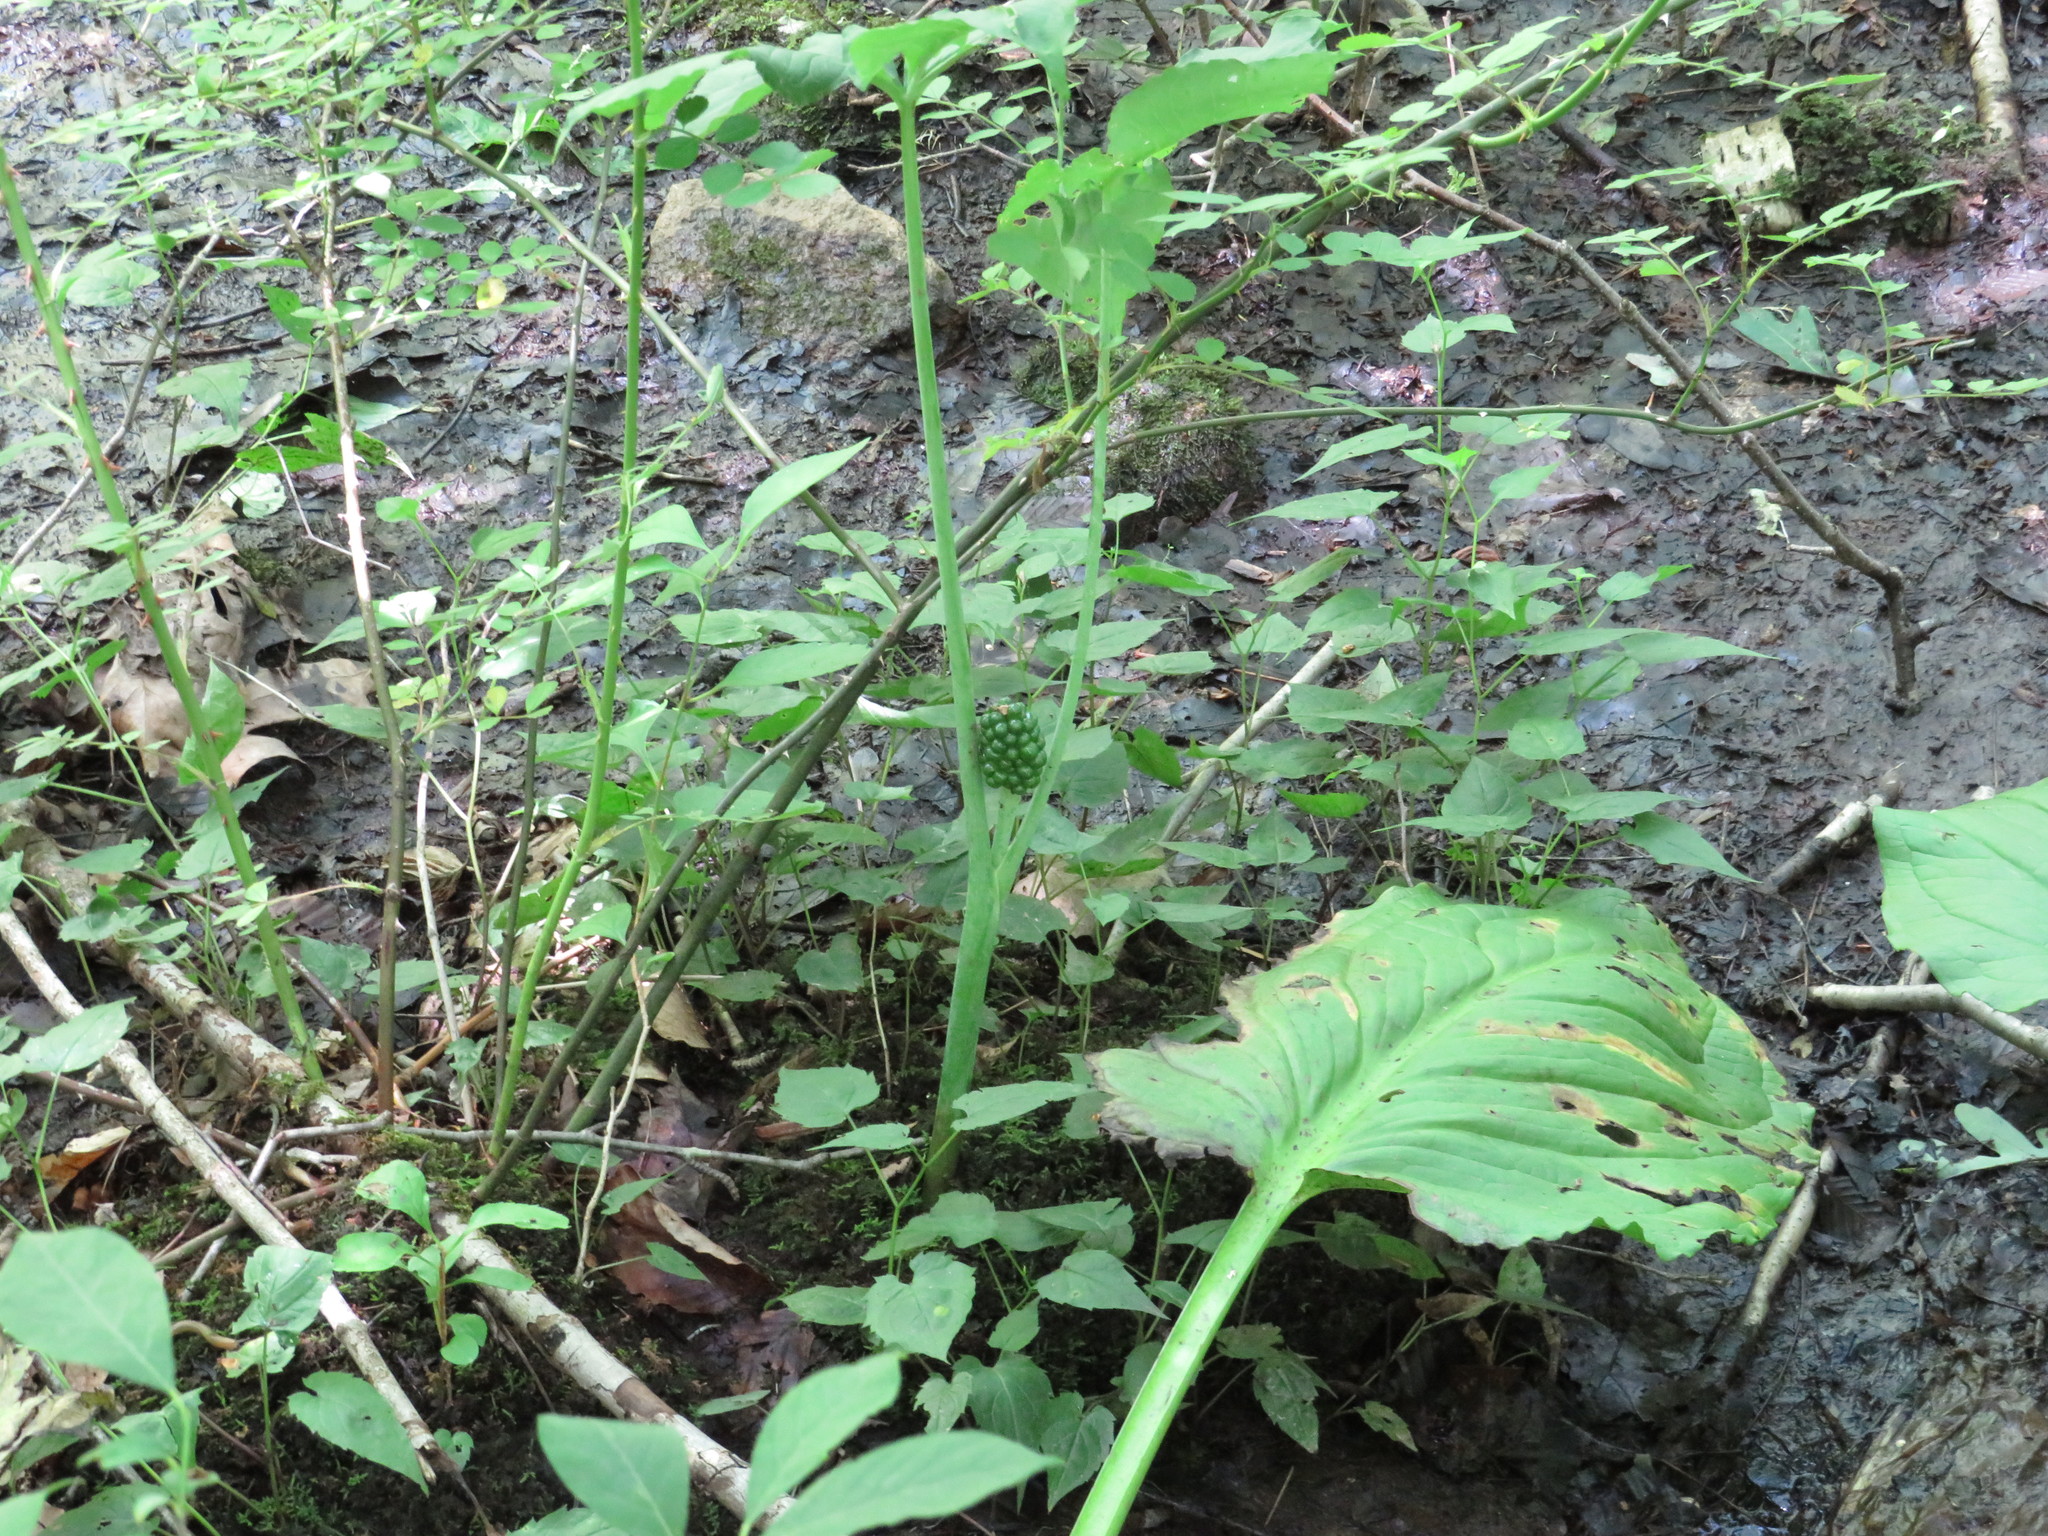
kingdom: Plantae
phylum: Tracheophyta
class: Liliopsida
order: Alismatales
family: Araceae
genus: Arisaema
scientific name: Arisaema triphyllum
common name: Jack-in-the-pulpit
